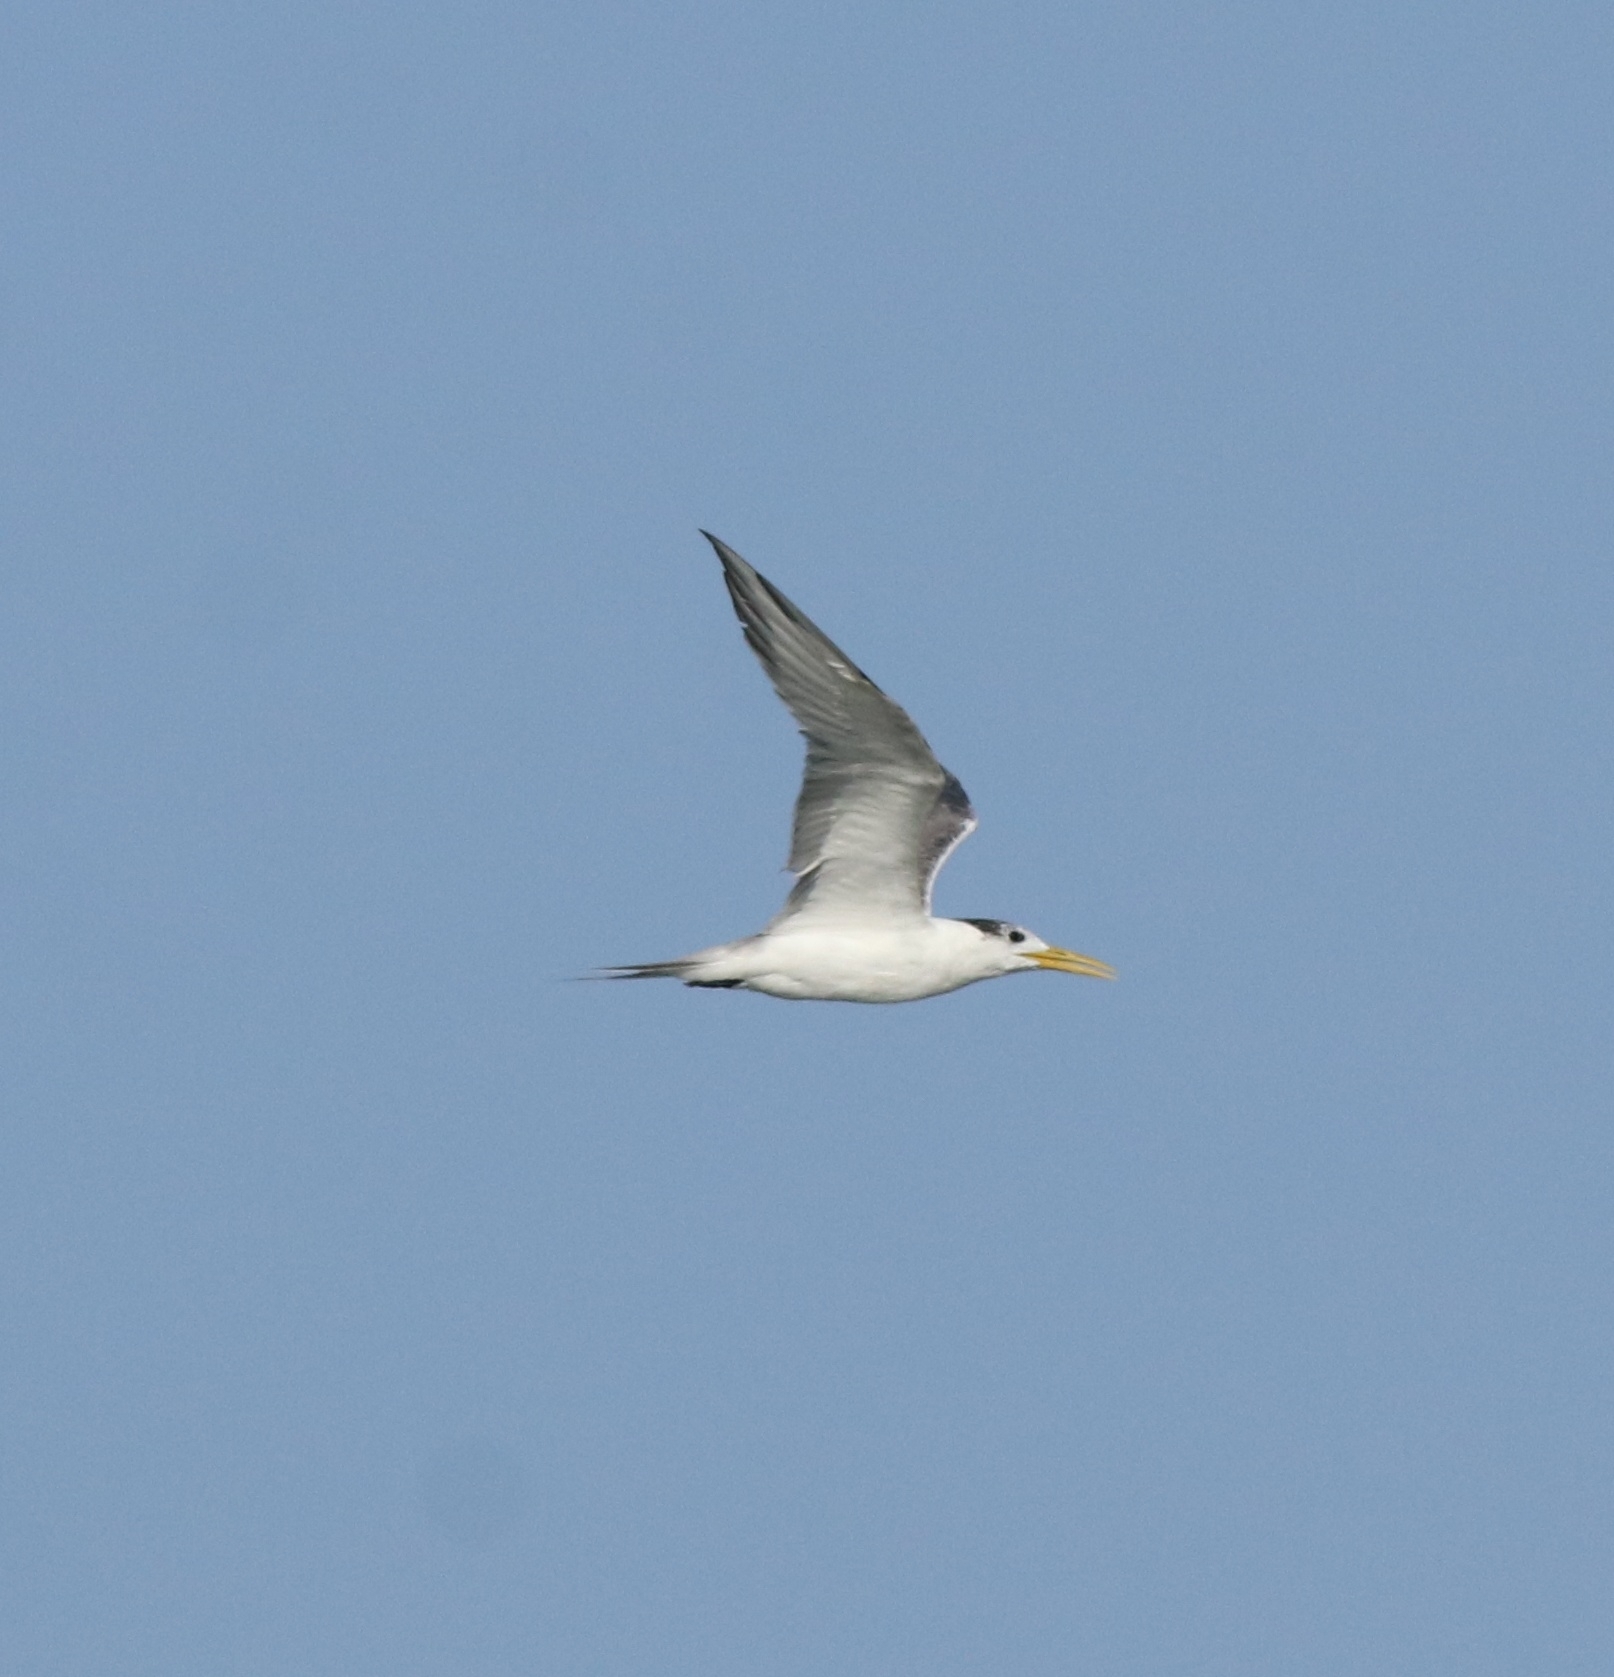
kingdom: Animalia
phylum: Chordata
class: Aves
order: Charadriiformes
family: Laridae
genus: Thalasseus
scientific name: Thalasseus bergii
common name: Greater crested tern
